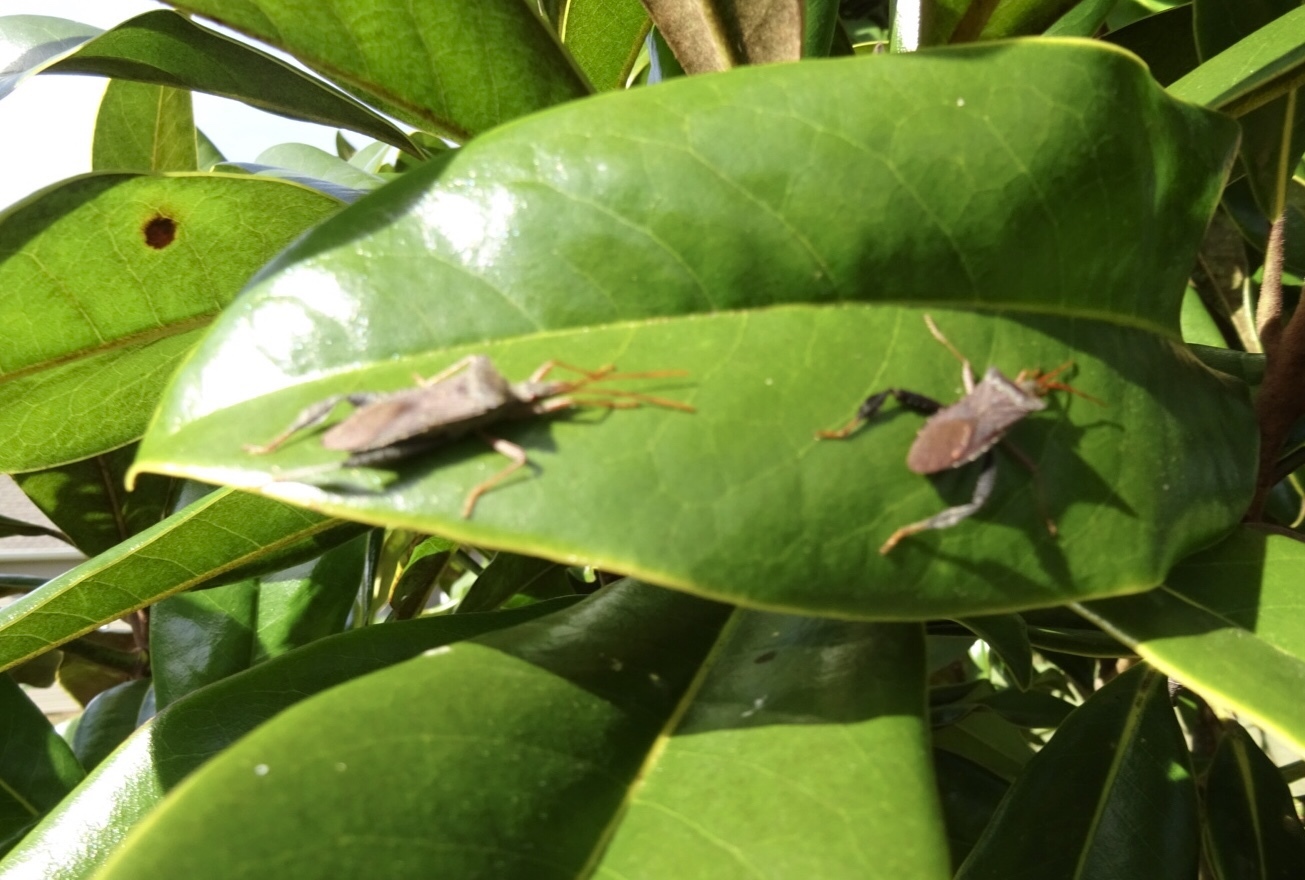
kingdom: Animalia
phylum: Arthropoda
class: Insecta
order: Hemiptera
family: Coreidae
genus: Leptoglossus
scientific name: Leptoglossus fulvicornis
